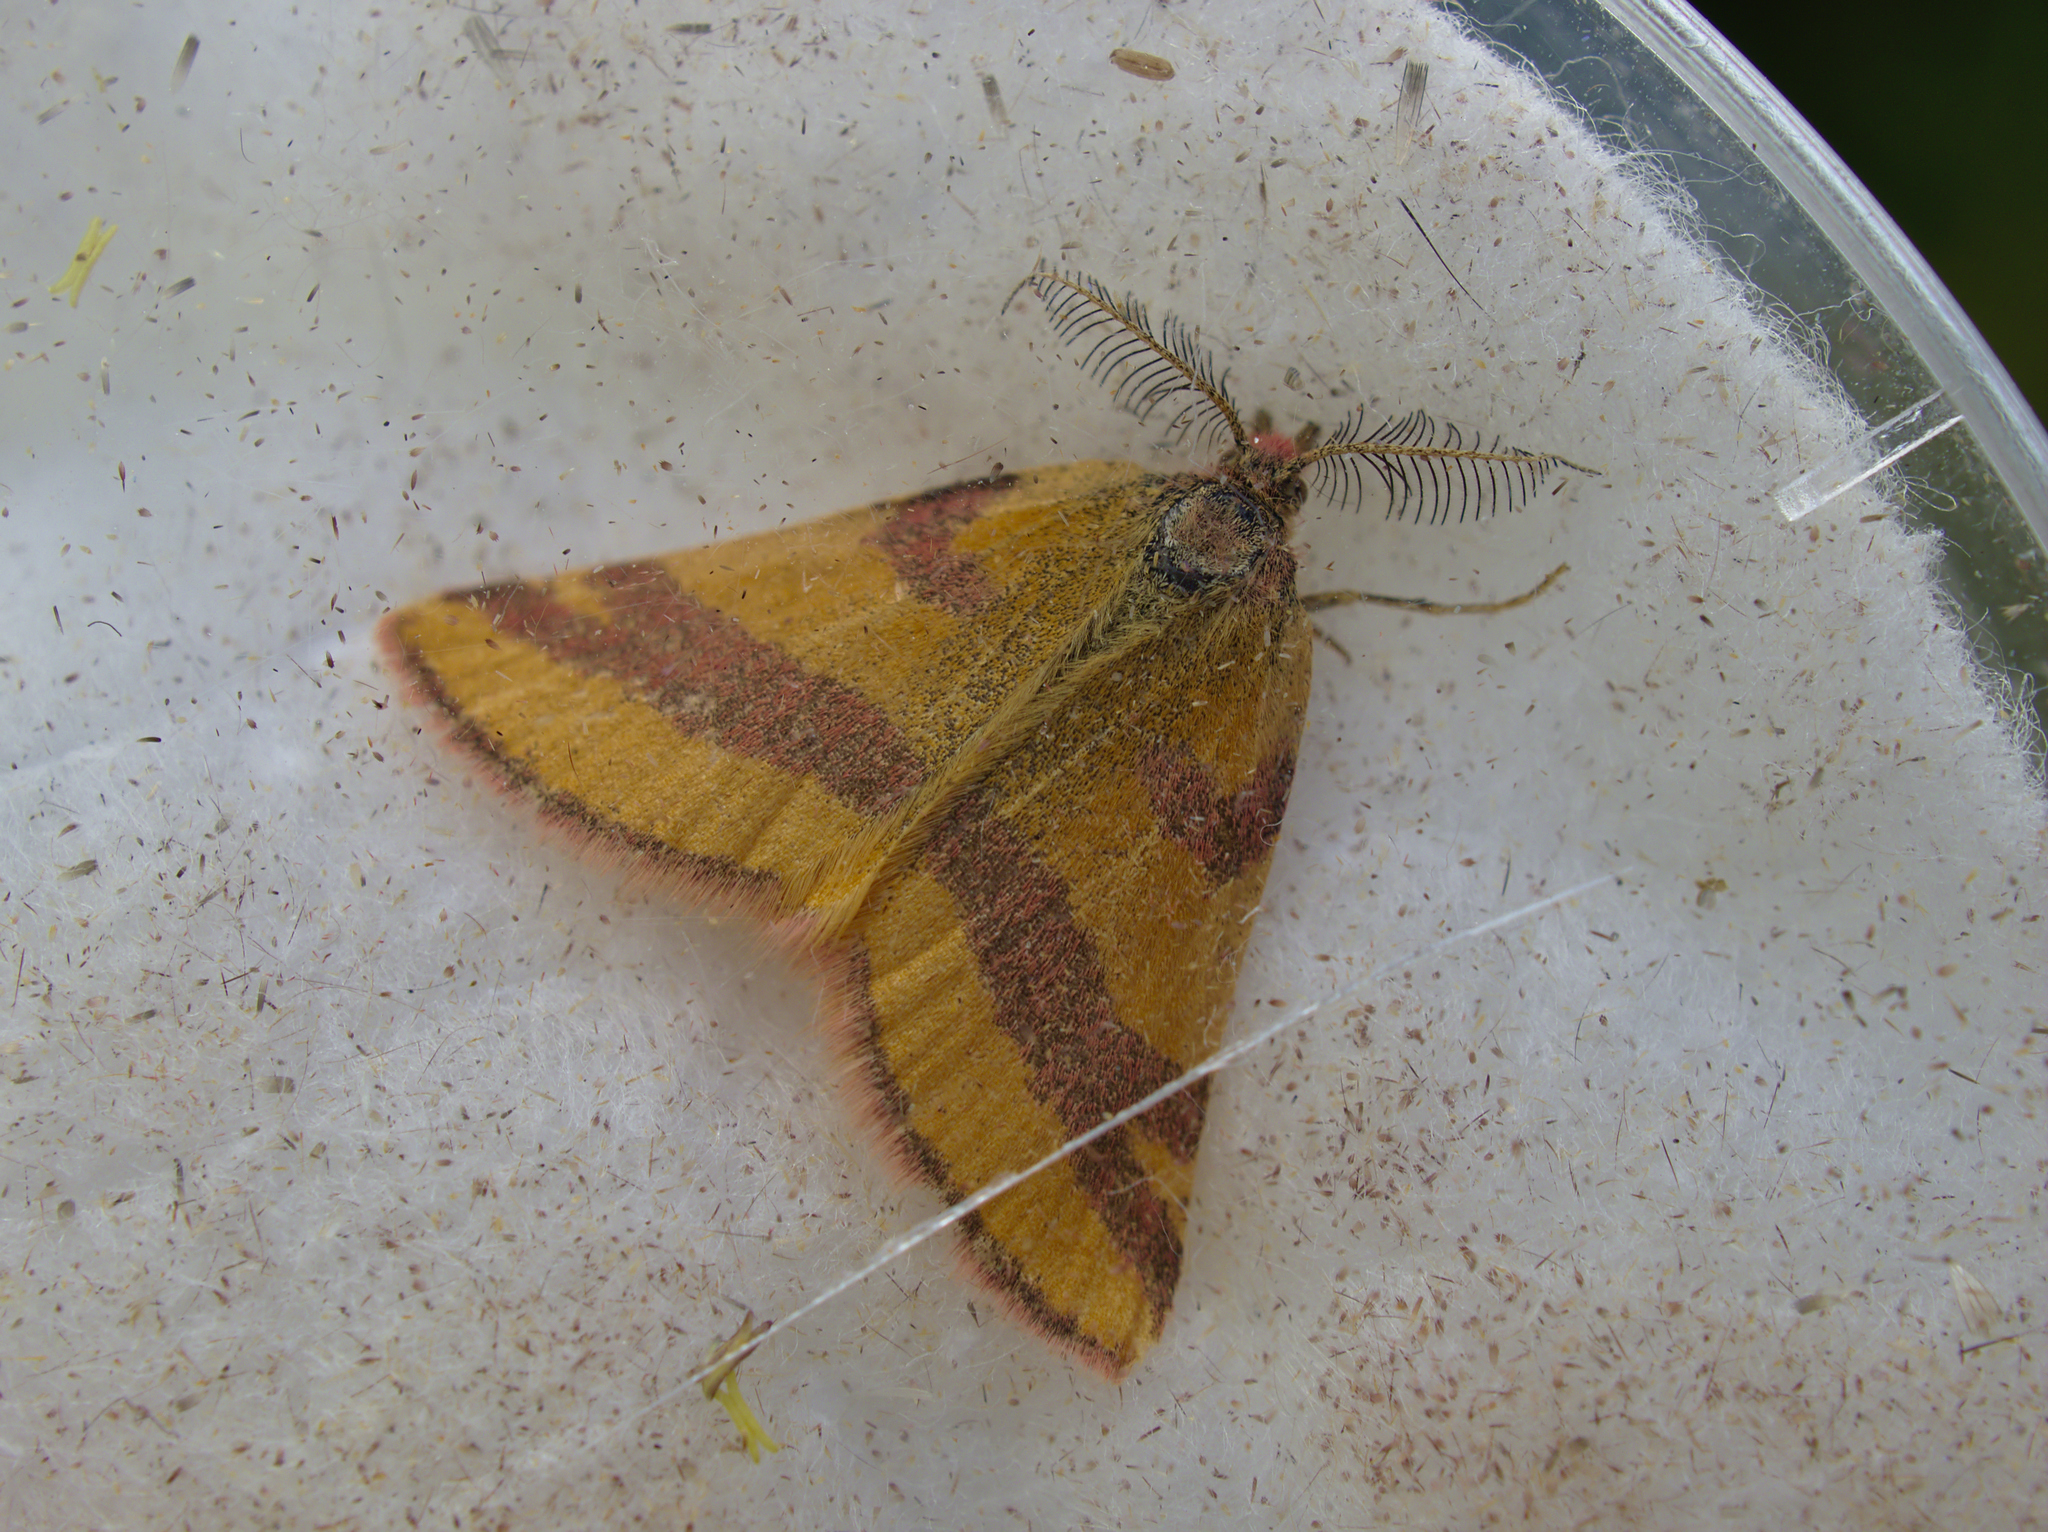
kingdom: Animalia
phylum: Arthropoda
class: Insecta
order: Lepidoptera
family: Geometridae
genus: Lythria
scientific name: Lythria cruentaria
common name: Purple-barred yellow
